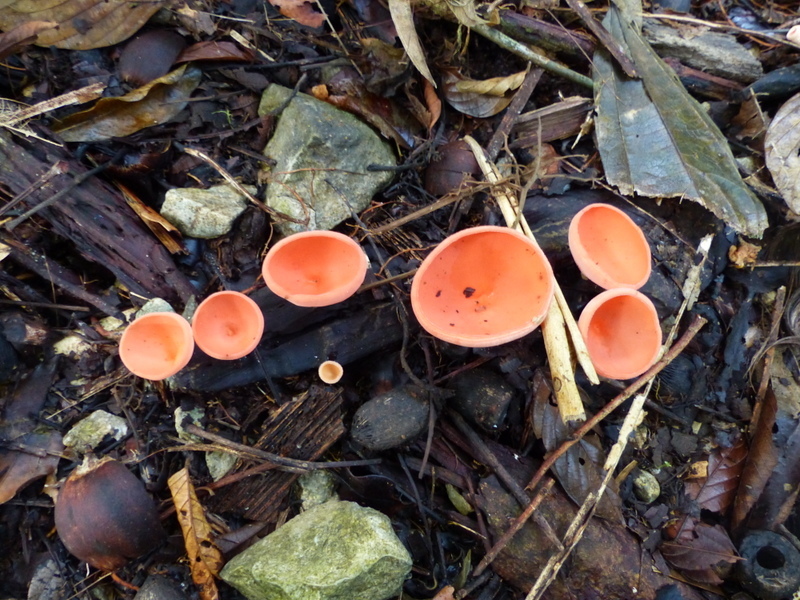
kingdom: Fungi
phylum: Ascomycota
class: Pezizomycetes
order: Pezizales
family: Sarcoscyphaceae
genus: Cookeina
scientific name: Cookeina speciosa
